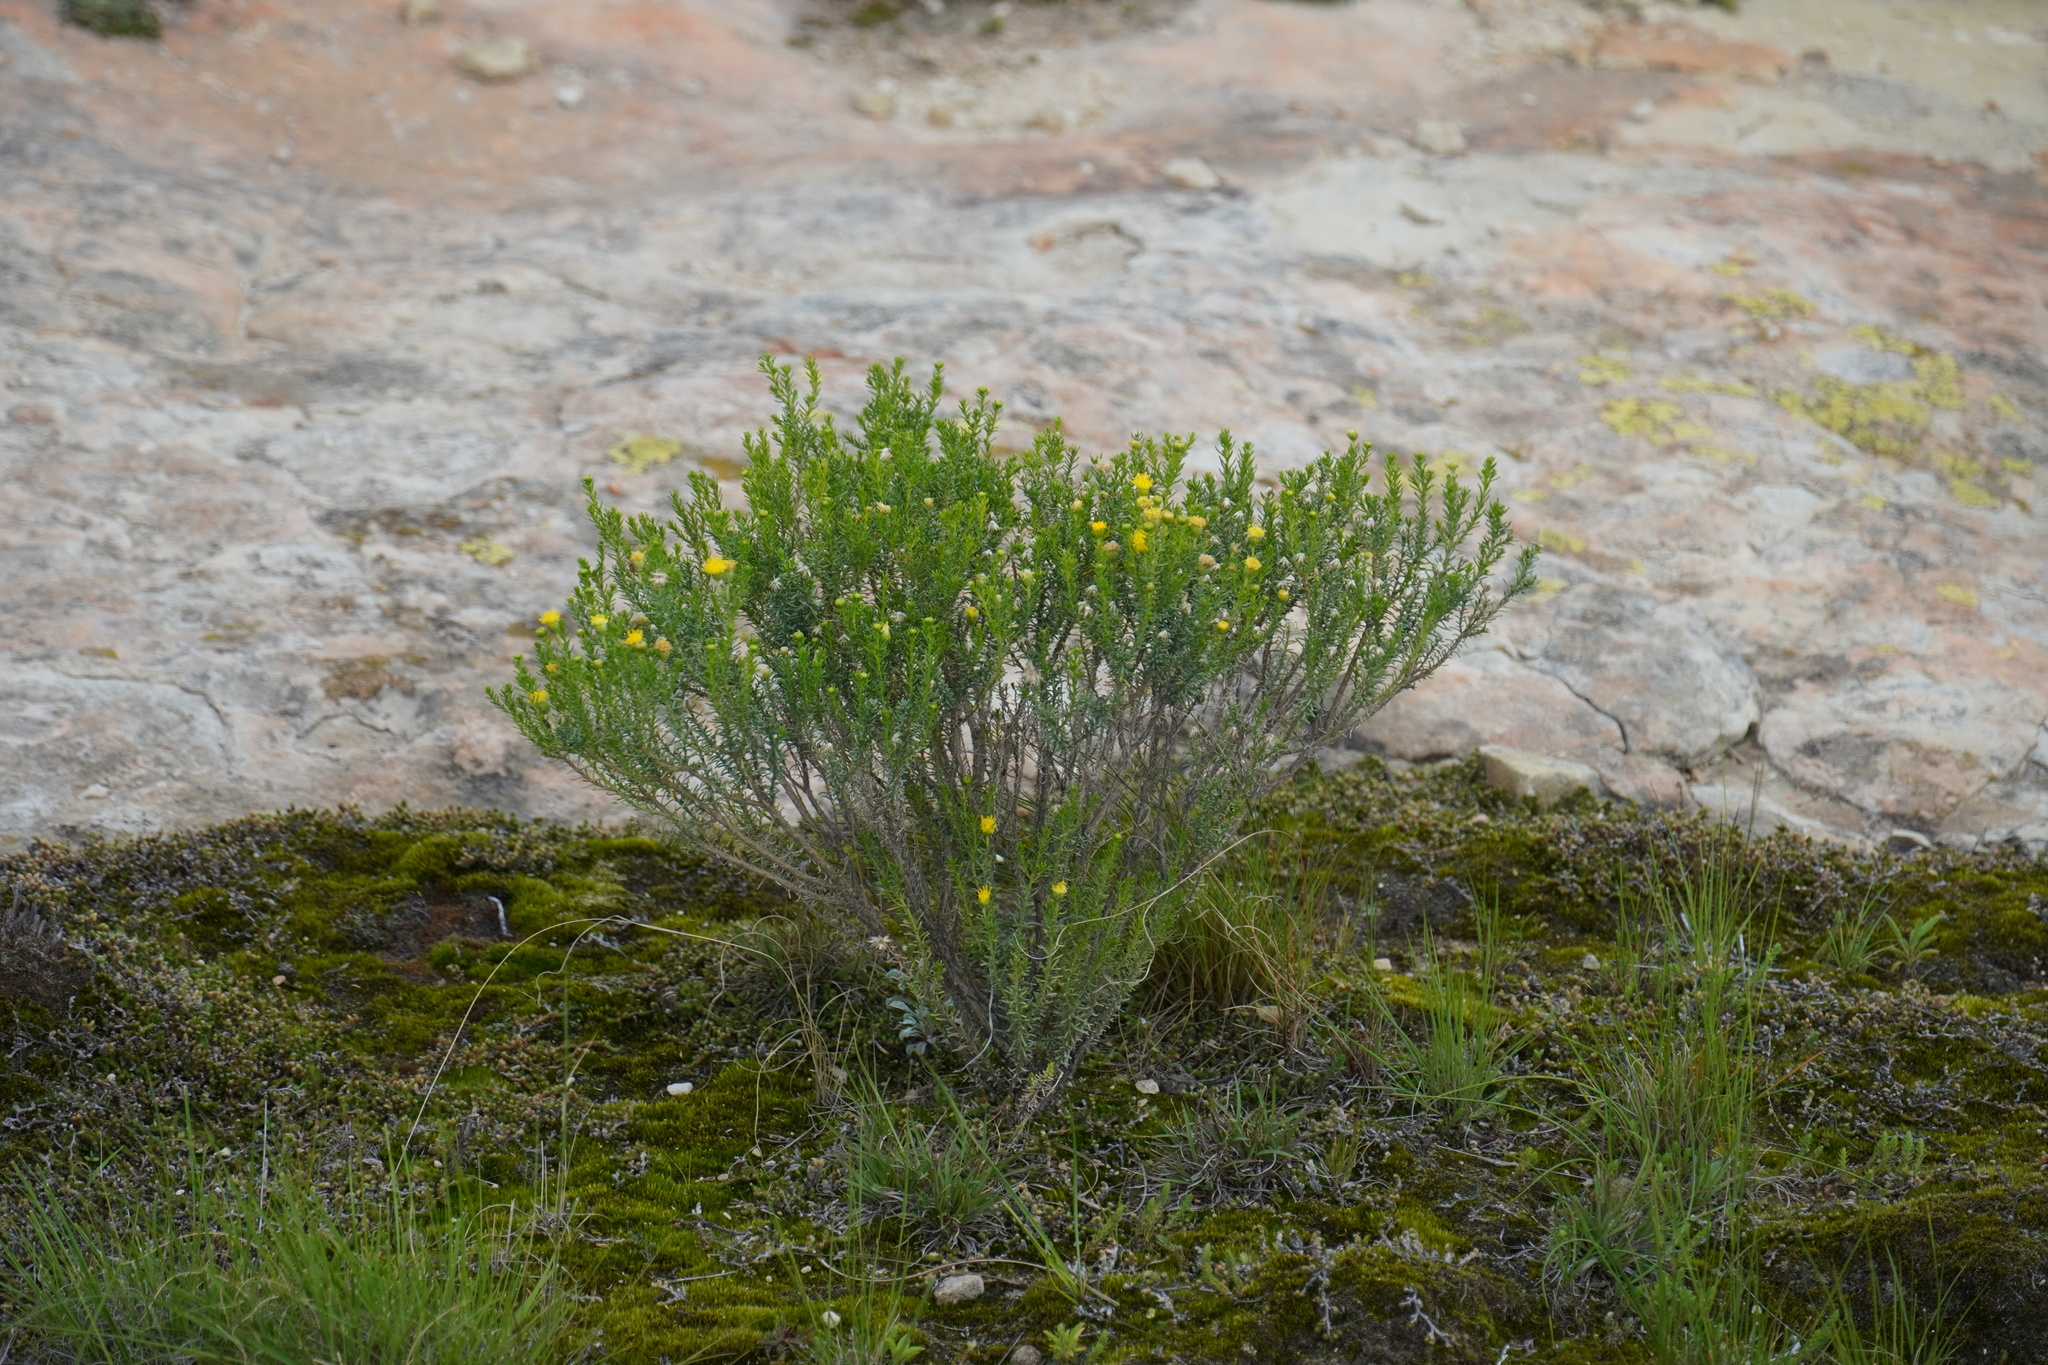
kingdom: Plantae
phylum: Tracheophyta
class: Magnoliopsida
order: Asterales
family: Asteraceae
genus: Chrysocoma
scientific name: Chrysocoma ciliata
